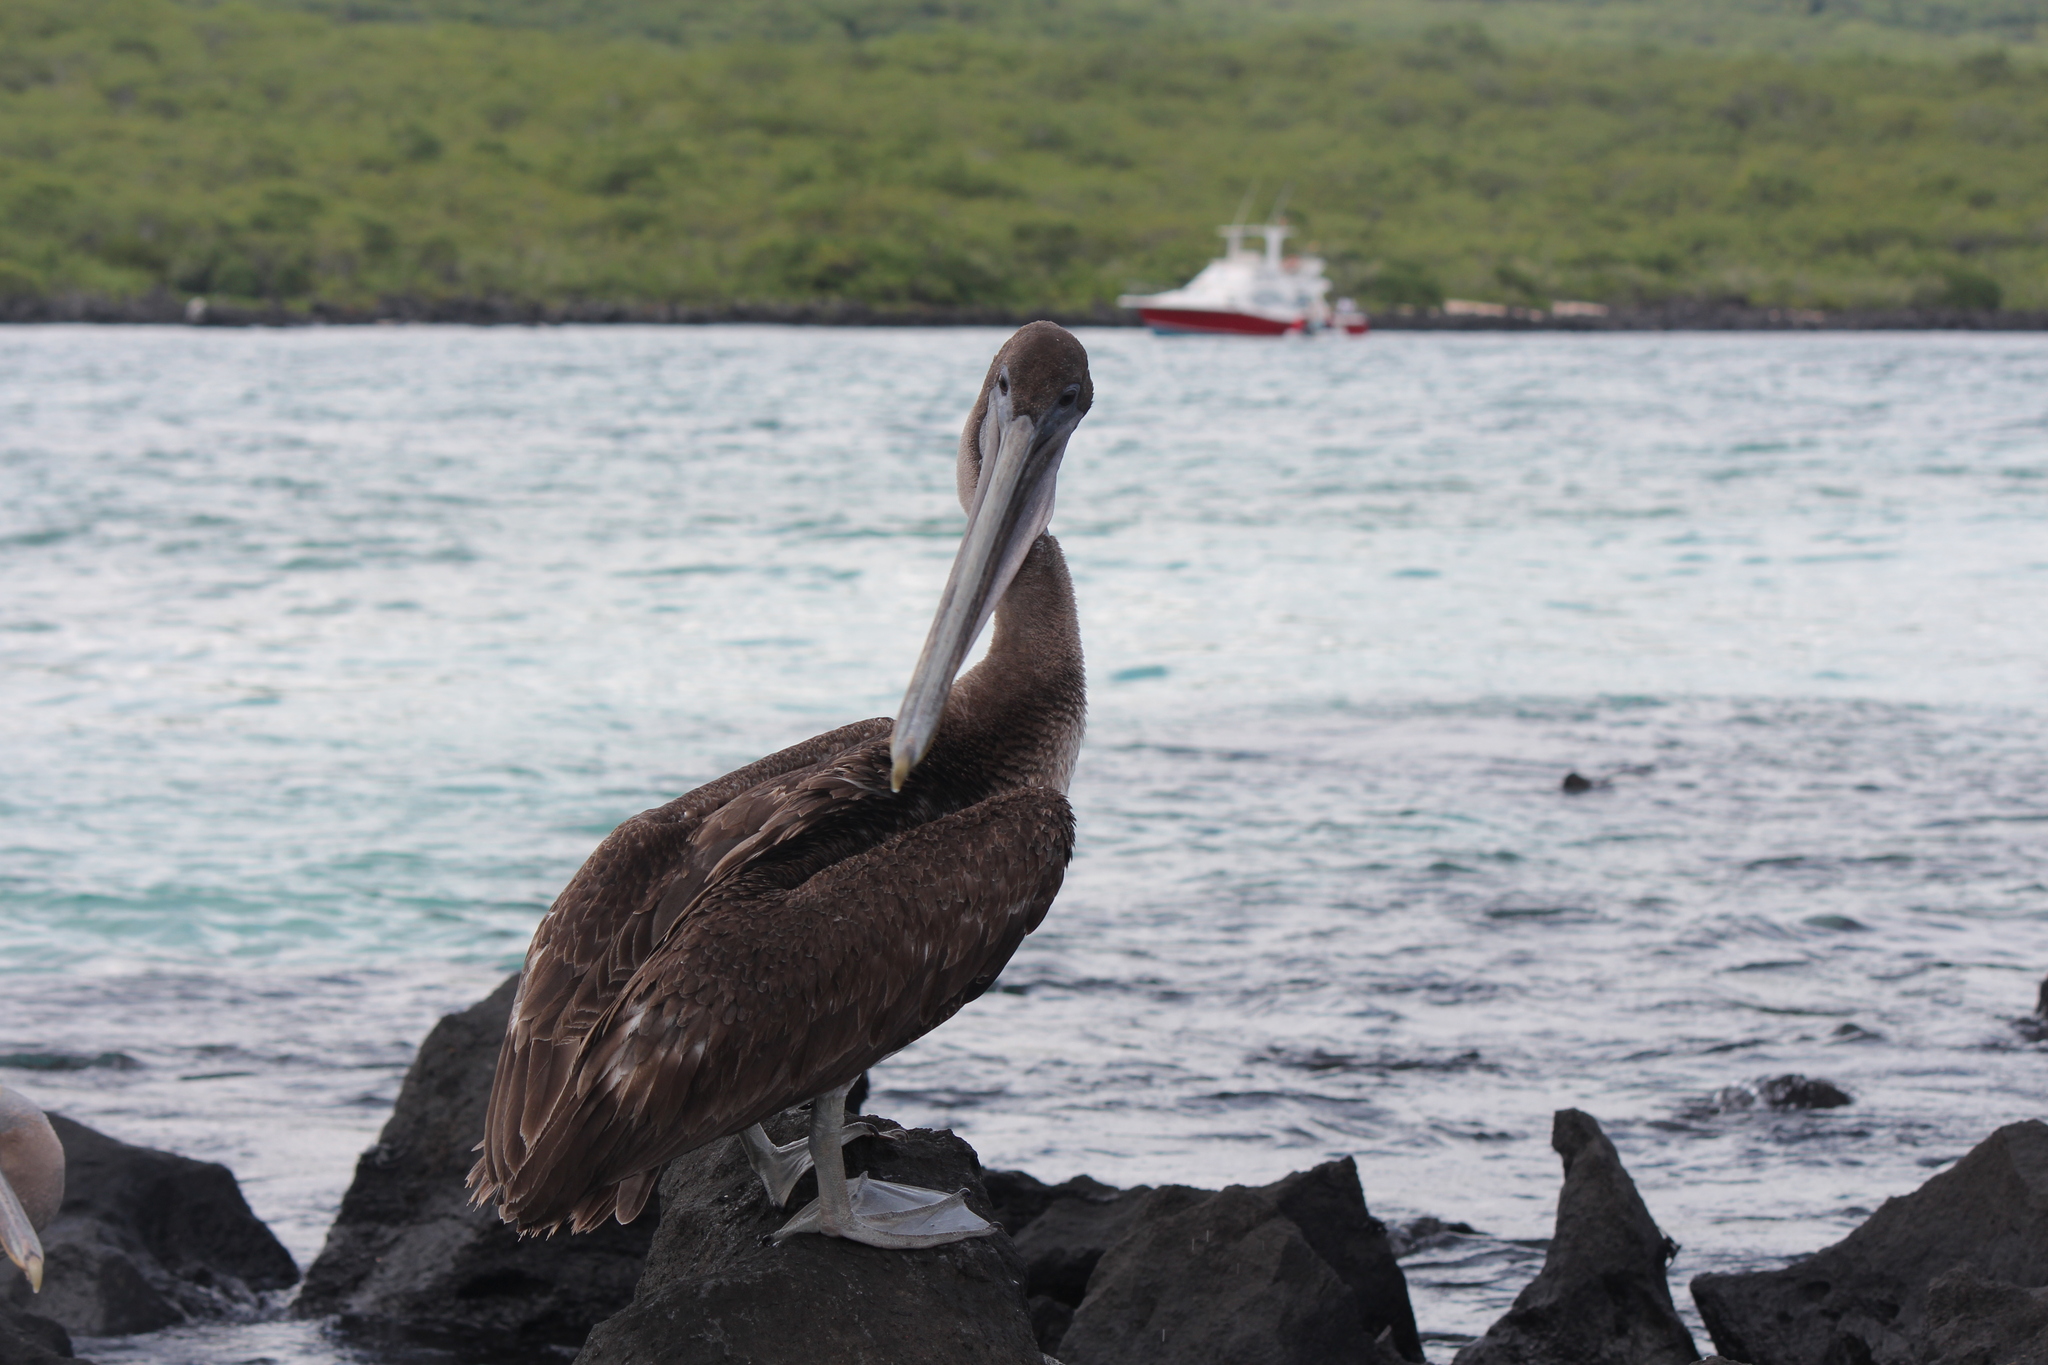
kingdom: Animalia
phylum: Chordata
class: Aves
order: Pelecaniformes
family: Pelecanidae
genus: Pelecanus
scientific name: Pelecanus occidentalis
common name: Brown pelican
